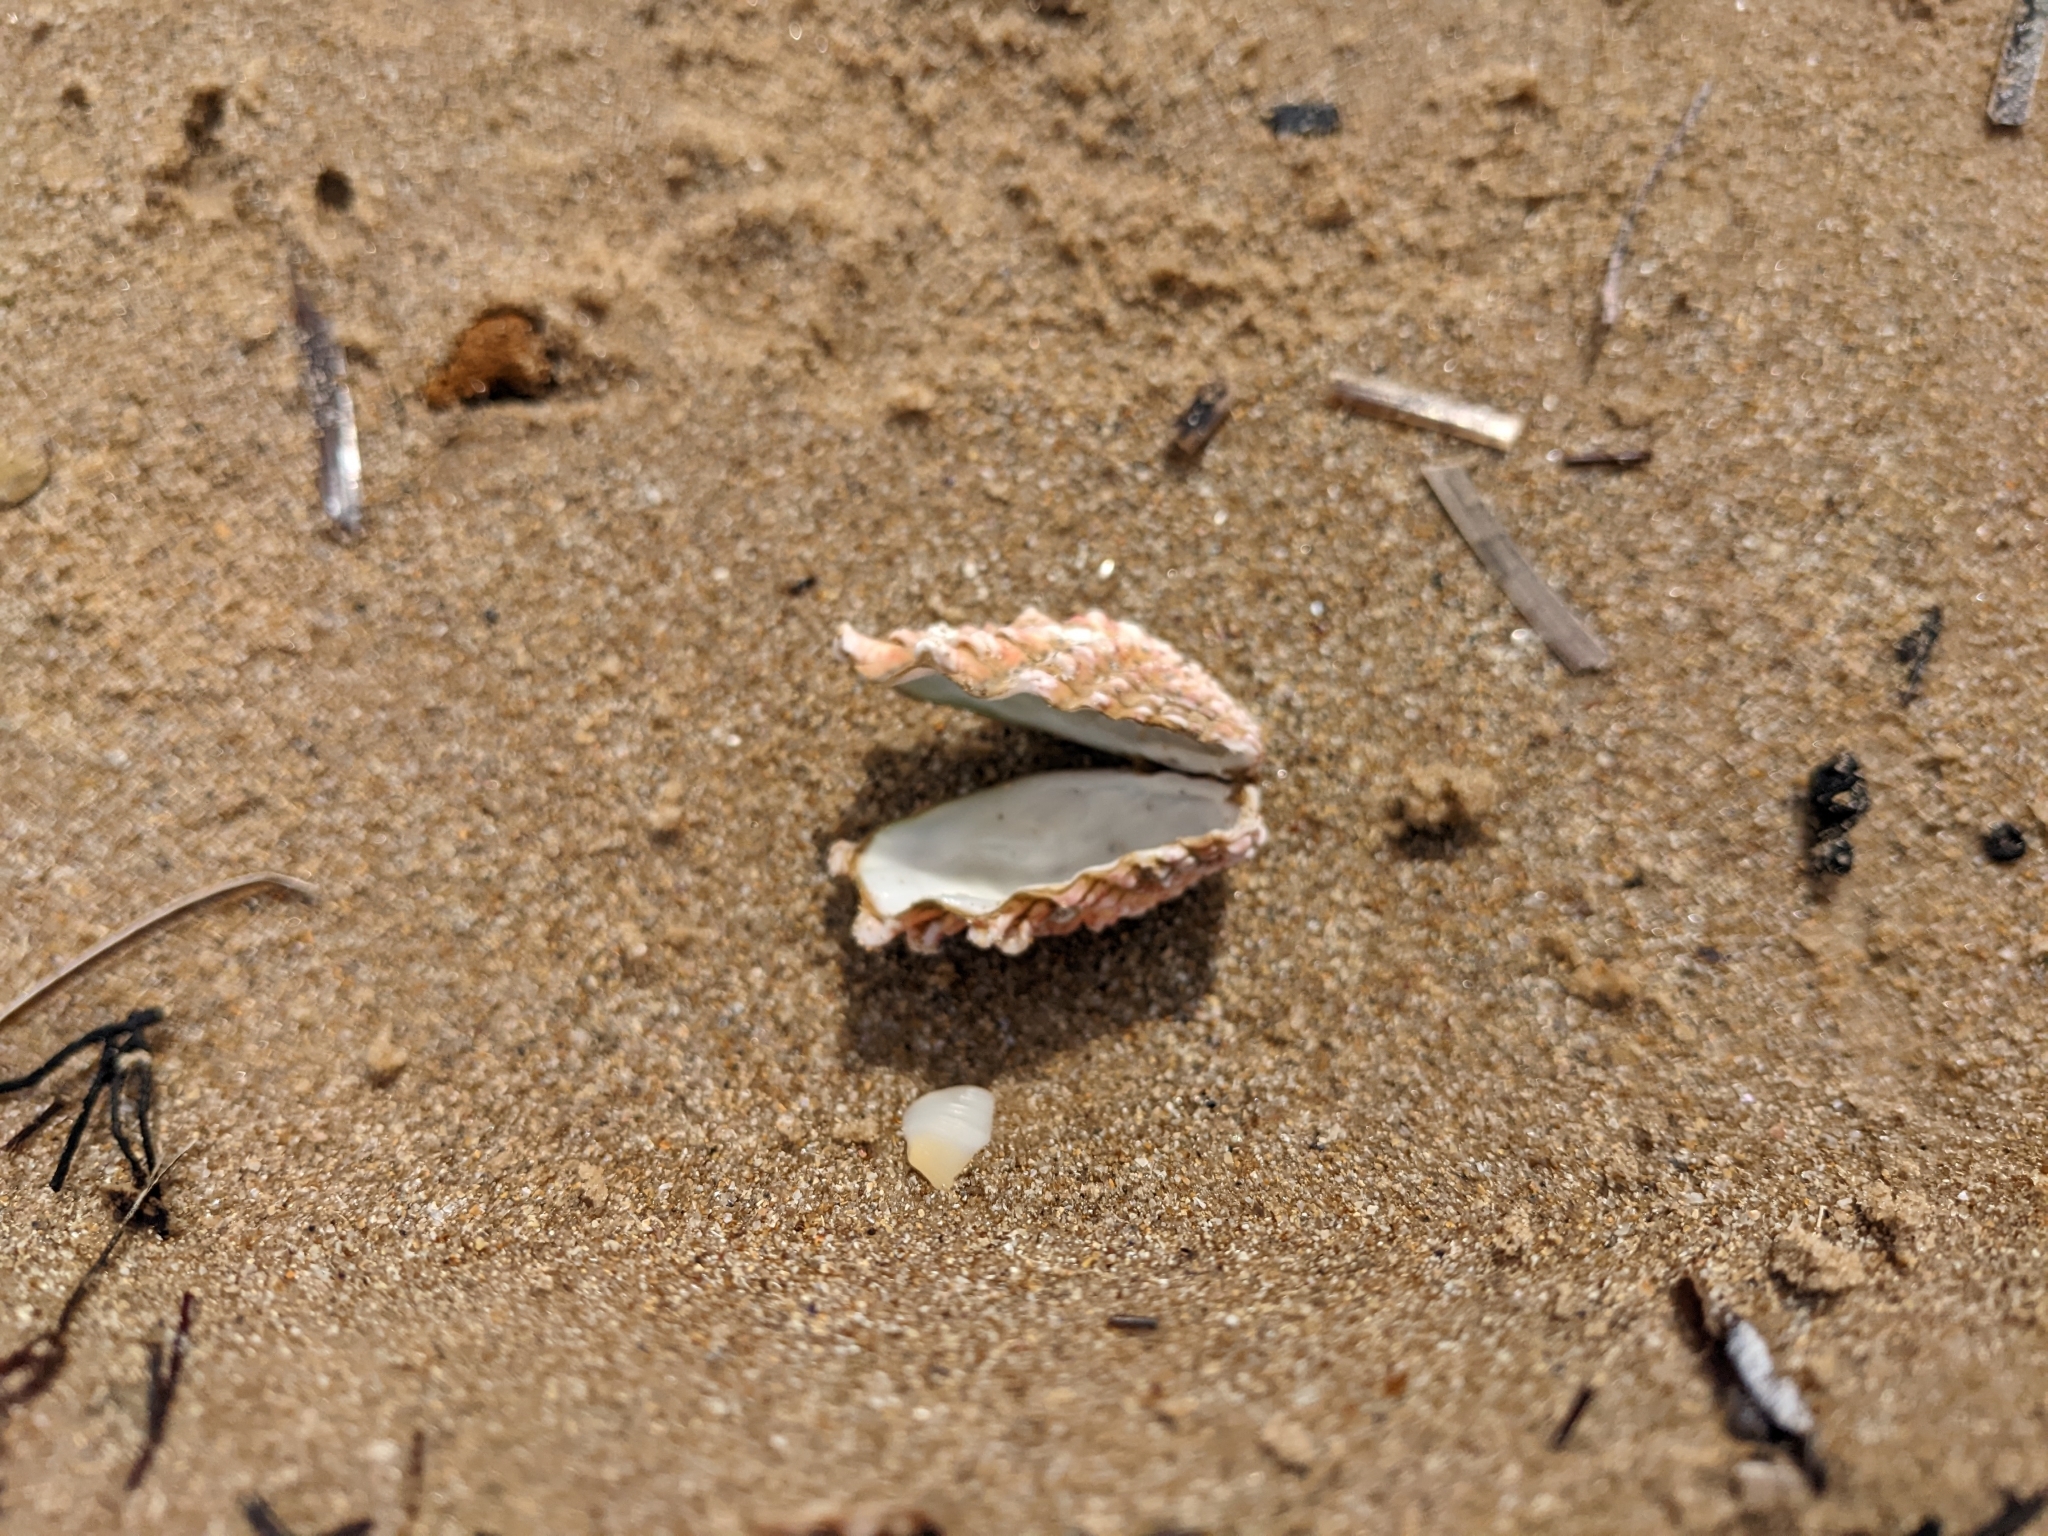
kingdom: Animalia
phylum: Mollusca
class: Bivalvia
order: Carditida
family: Carditidae
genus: Cardita
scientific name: Cardita crassicosta
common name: Large-ribbed cardita
